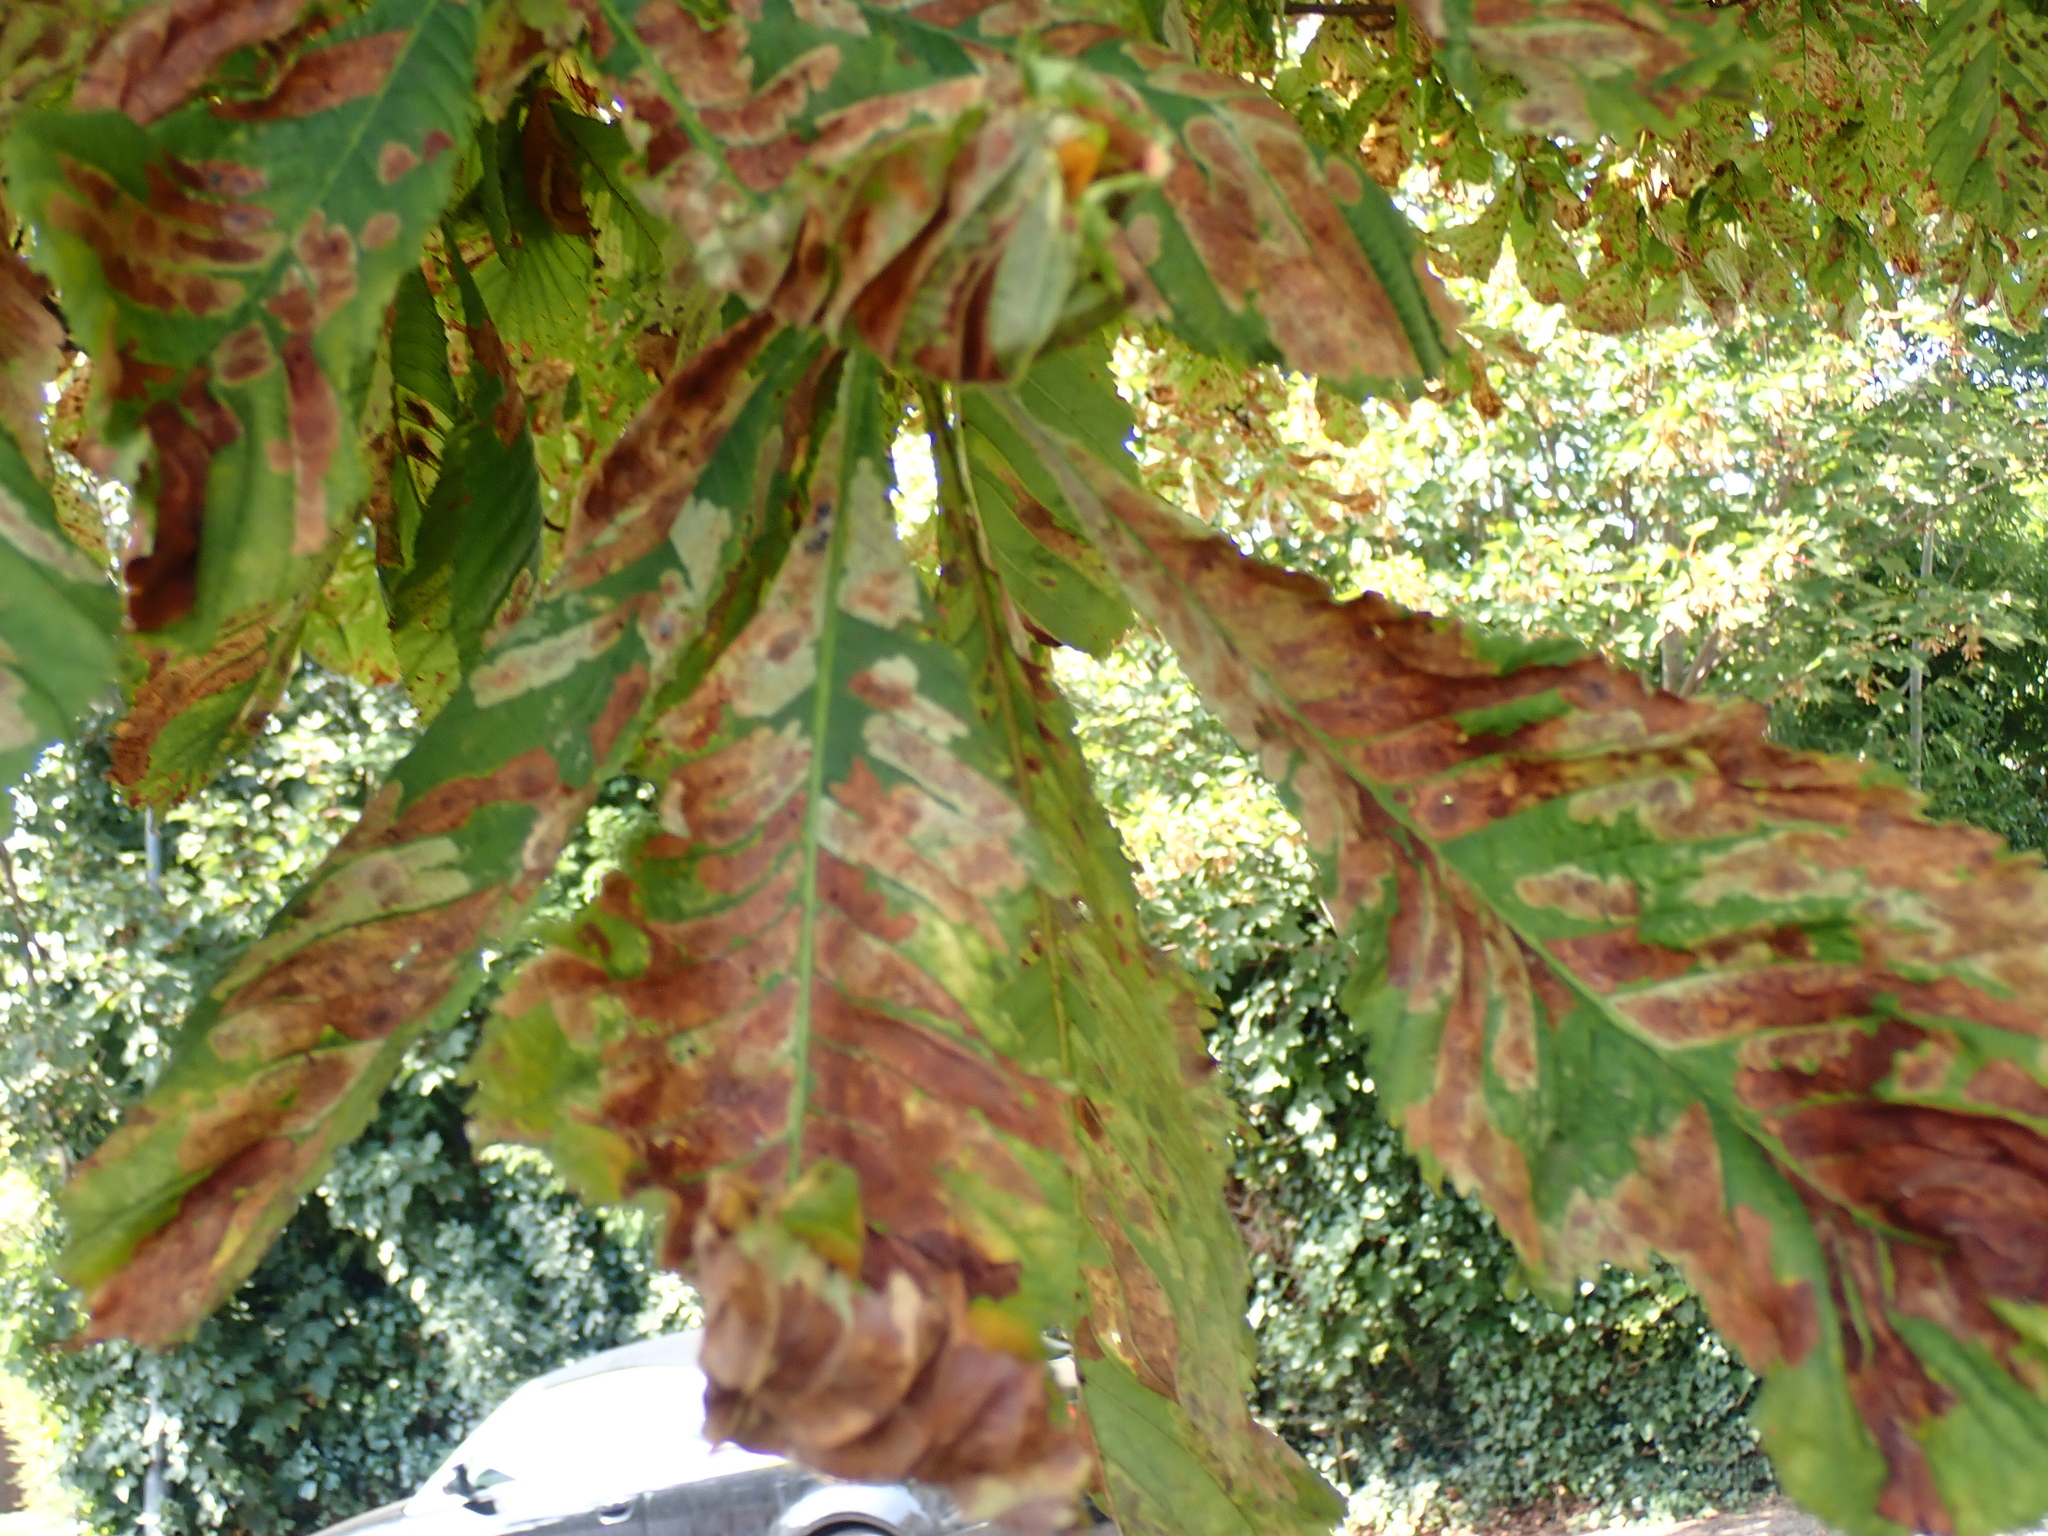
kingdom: Plantae
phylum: Tracheophyta
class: Magnoliopsida
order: Sapindales
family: Sapindaceae
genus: Aesculus
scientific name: Aesculus hippocastanum
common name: Horse-chestnut
